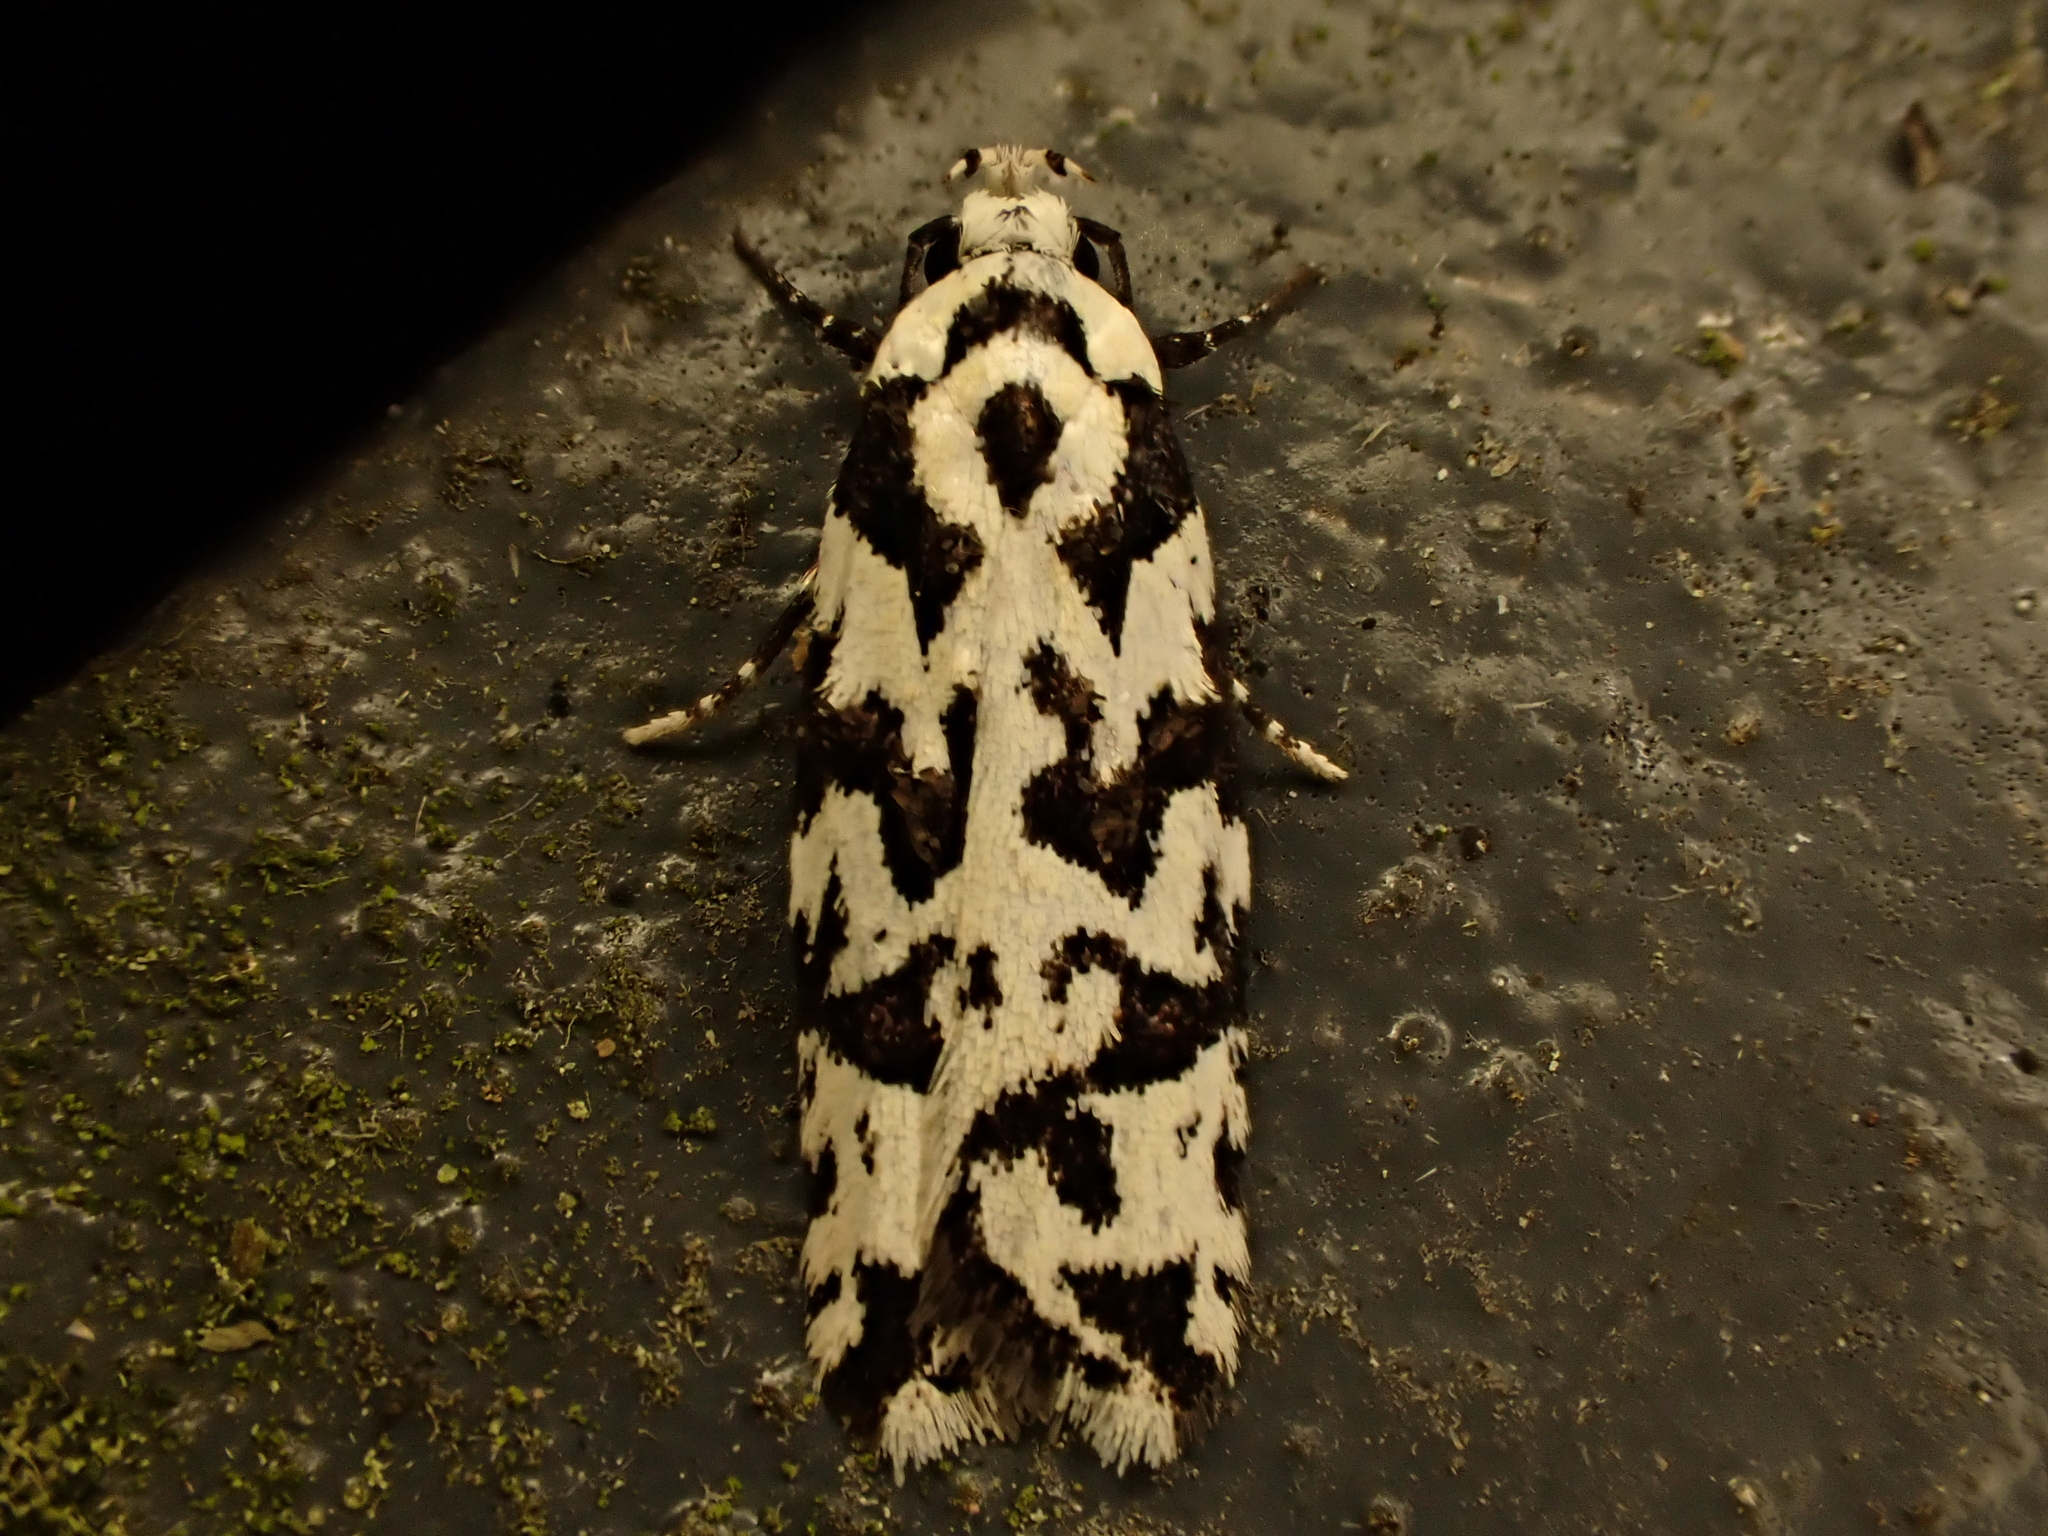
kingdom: Animalia
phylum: Arthropoda
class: Insecta
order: Lepidoptera
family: Oecophoridae
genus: Izatha
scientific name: Izatha
